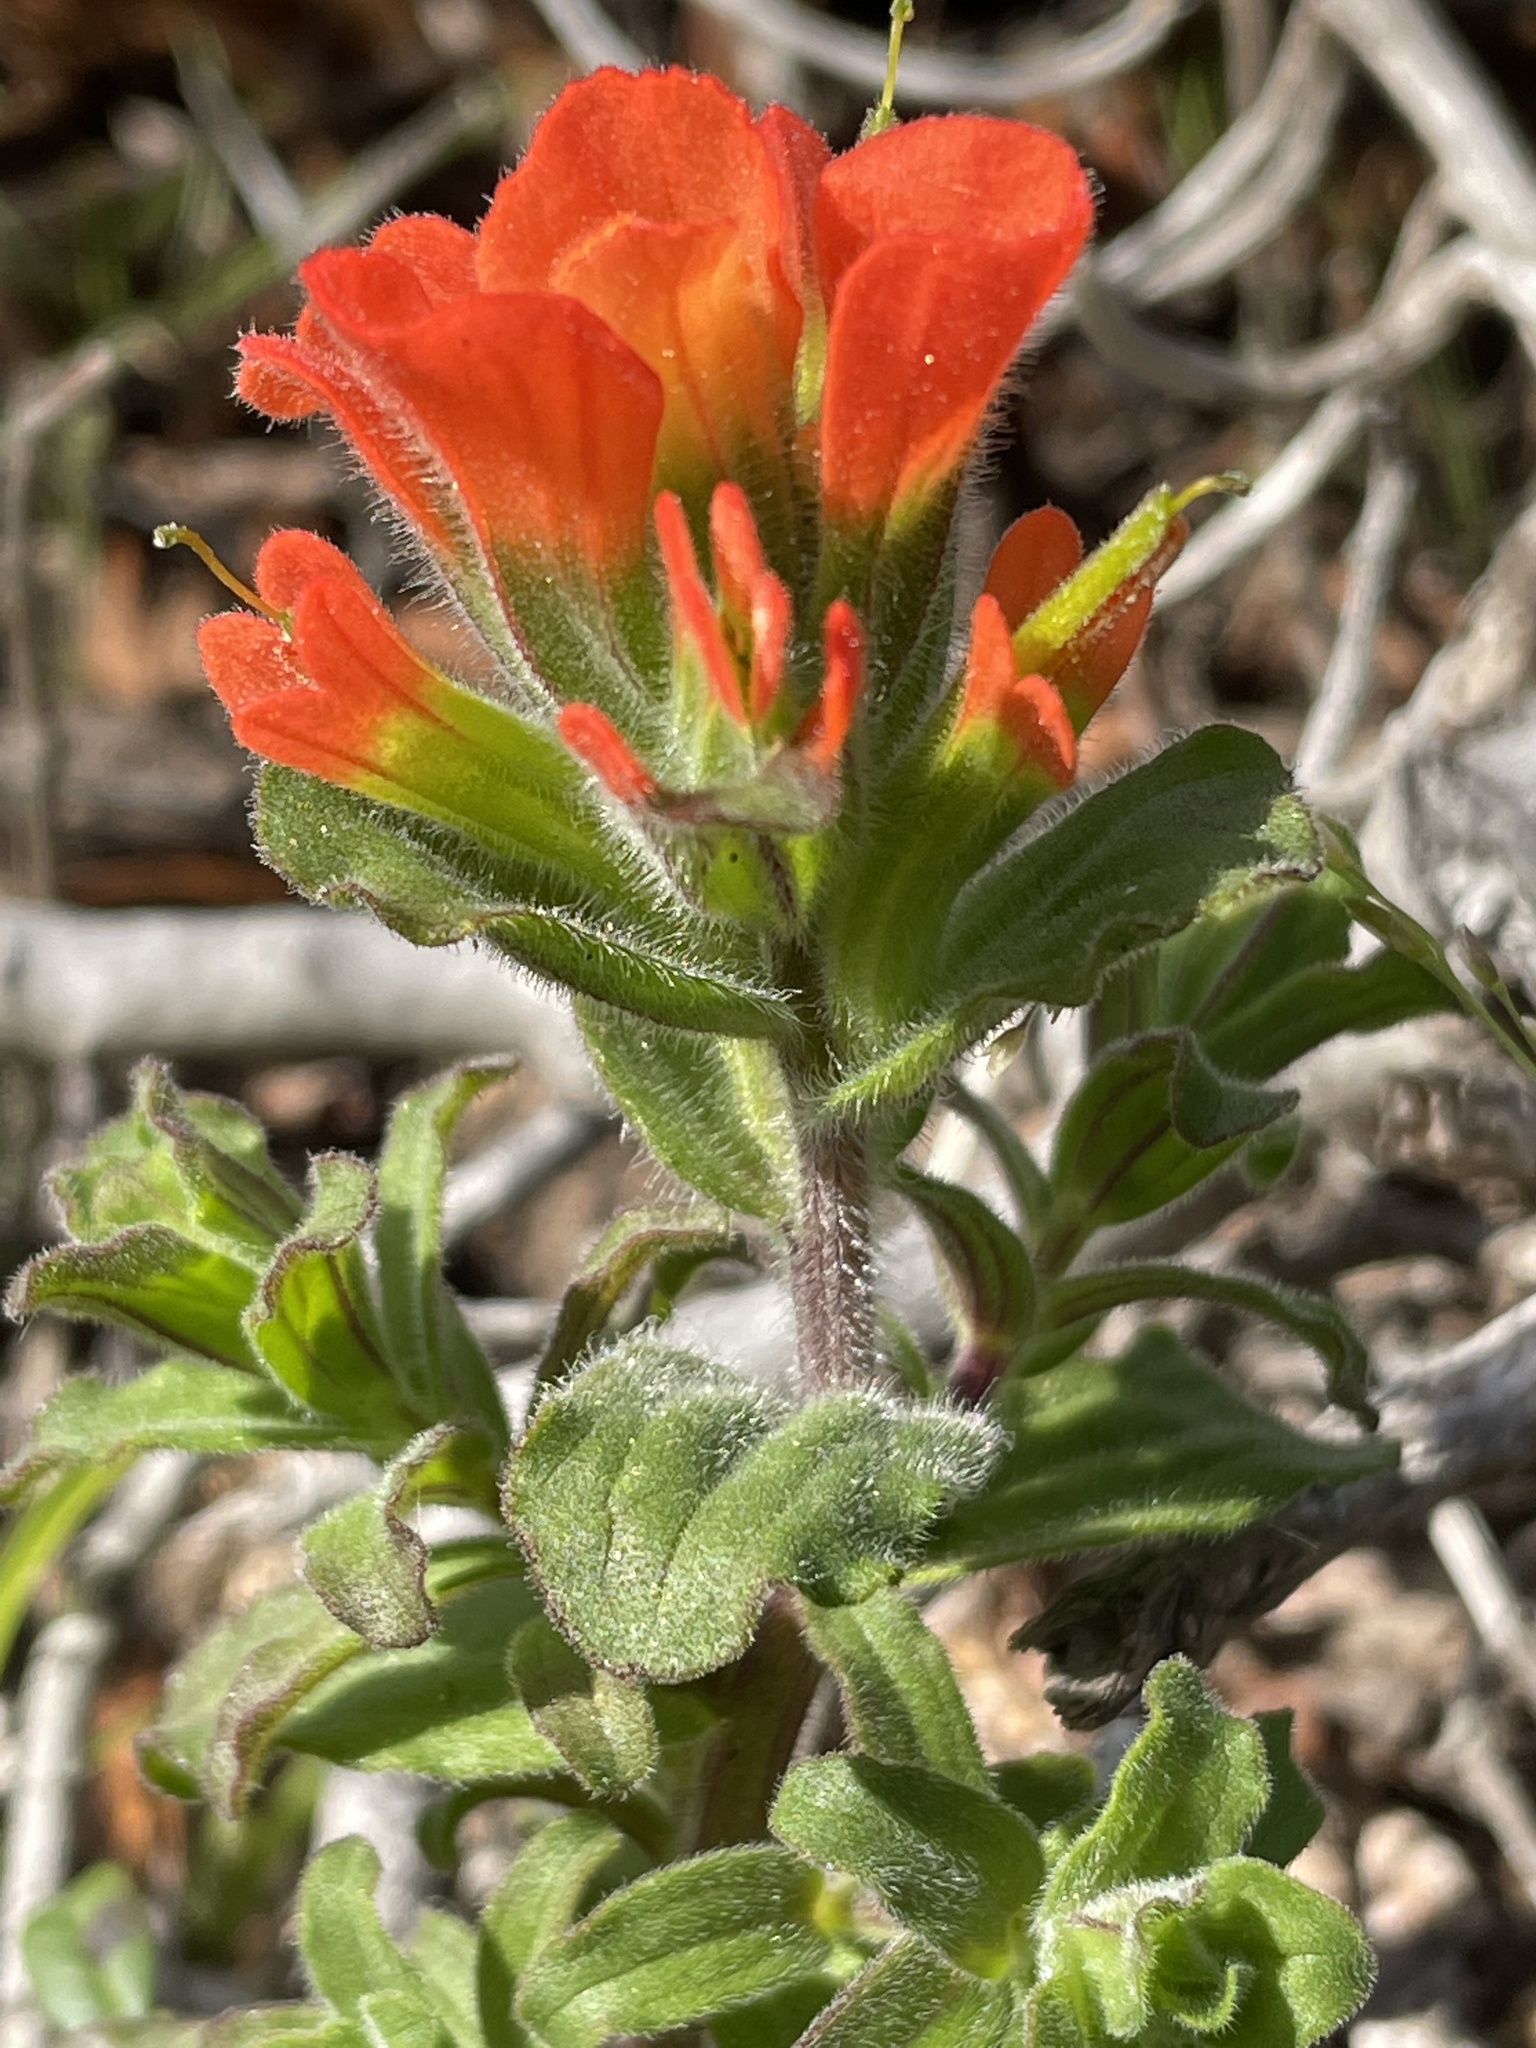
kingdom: Plantae
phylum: Tracheophyta
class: Magnoliopsida
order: Lamiales
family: Orobanchaceae
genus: Castilleja
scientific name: Castilleja latifolia
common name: Monterey indian paintbrush
